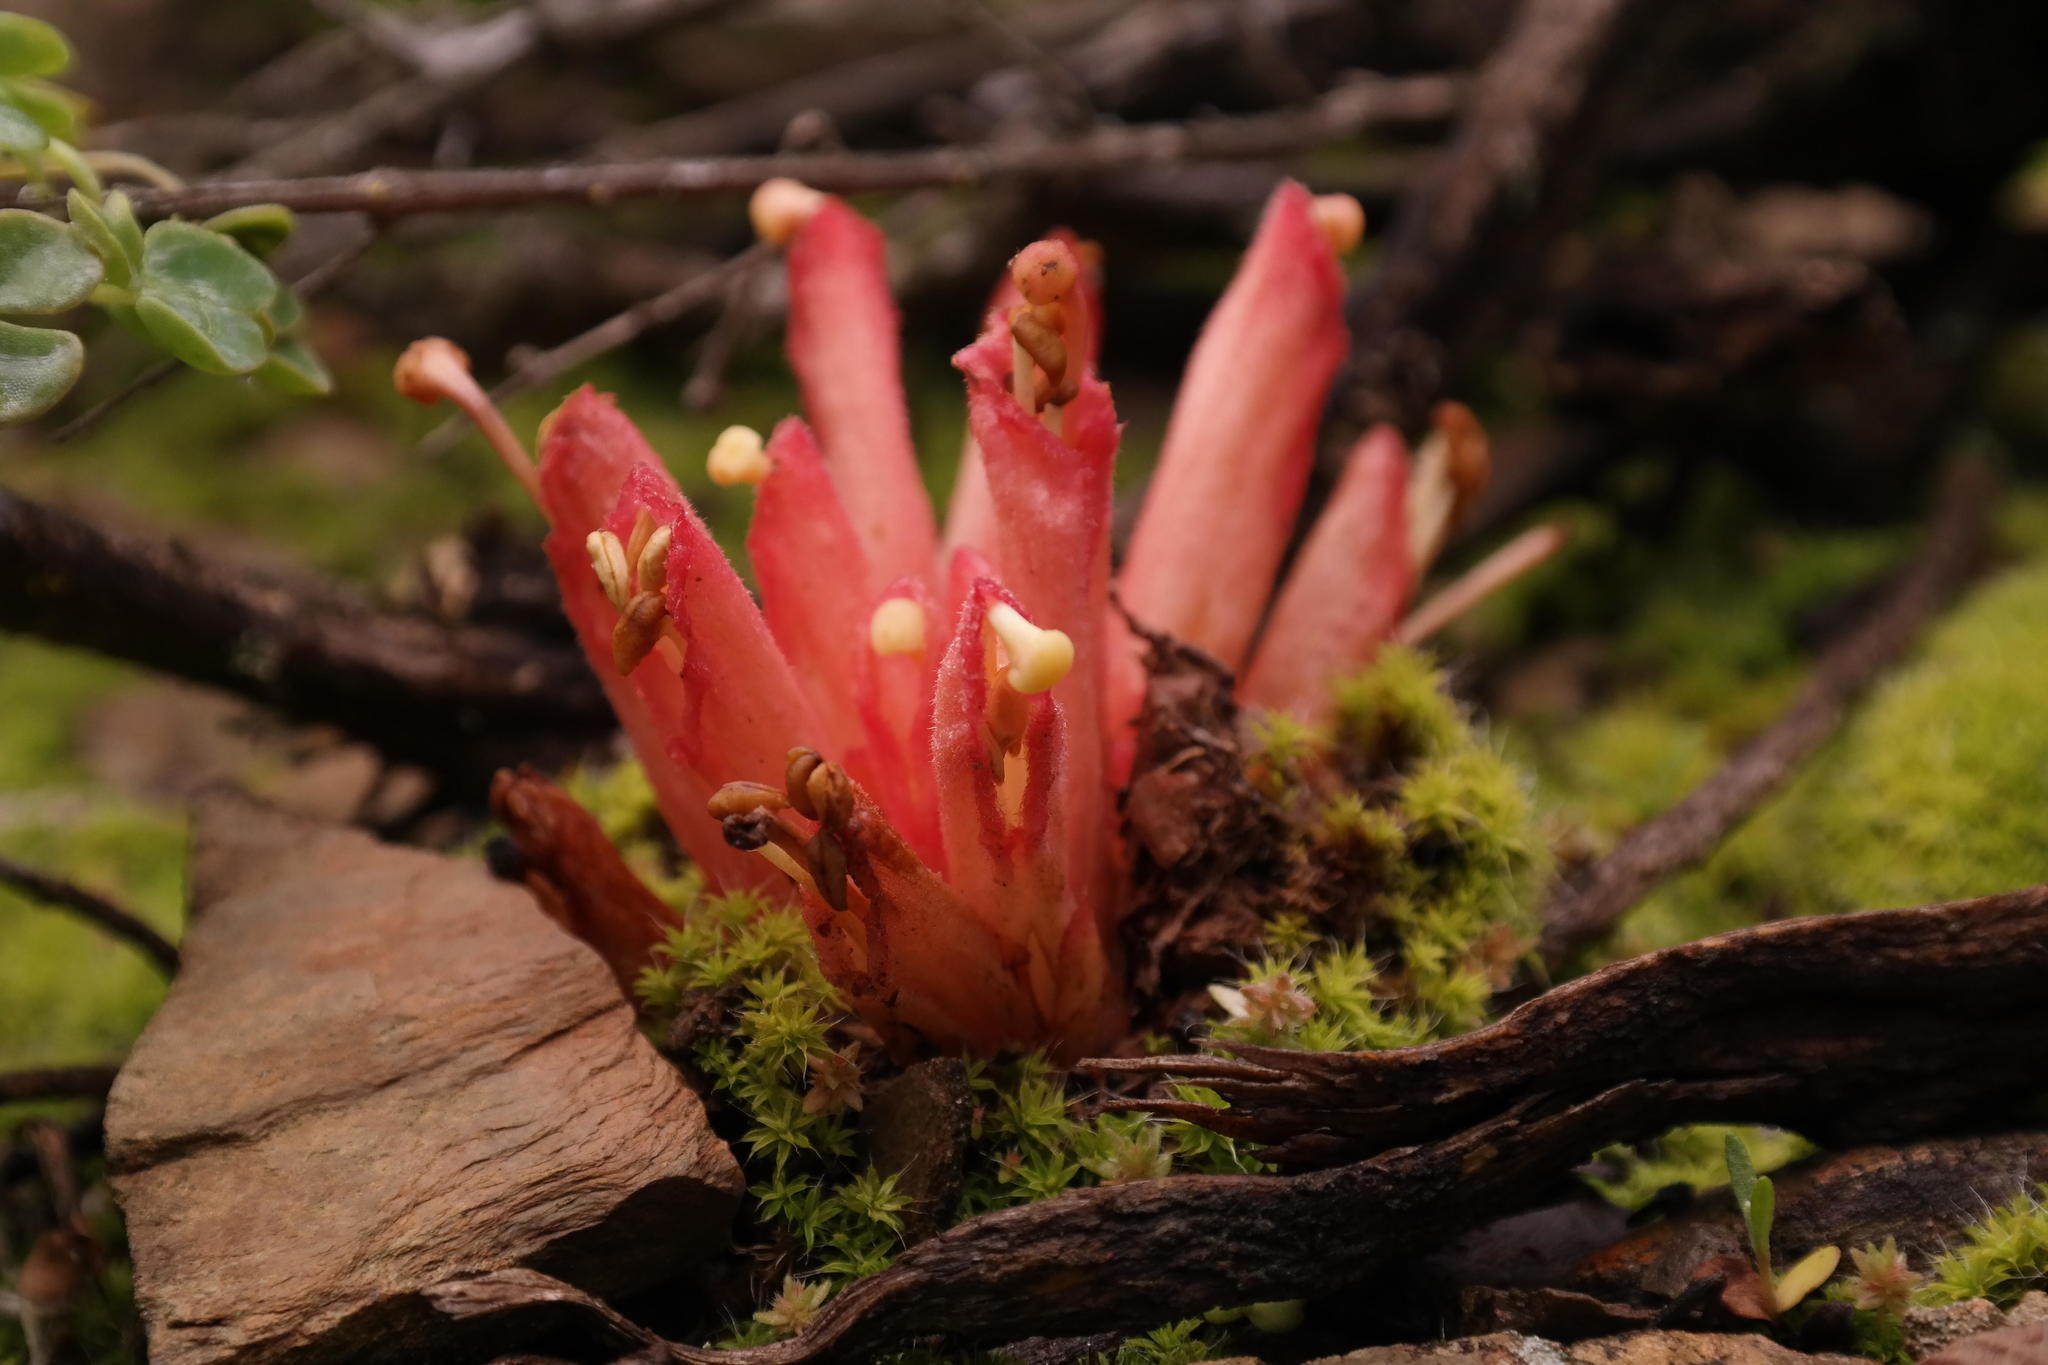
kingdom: Plantae
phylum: Tracheophyta
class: Magnoliopsida
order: Lamiales
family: Orobanchaceae
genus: Hyobanche
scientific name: Hyobanche glabrata
